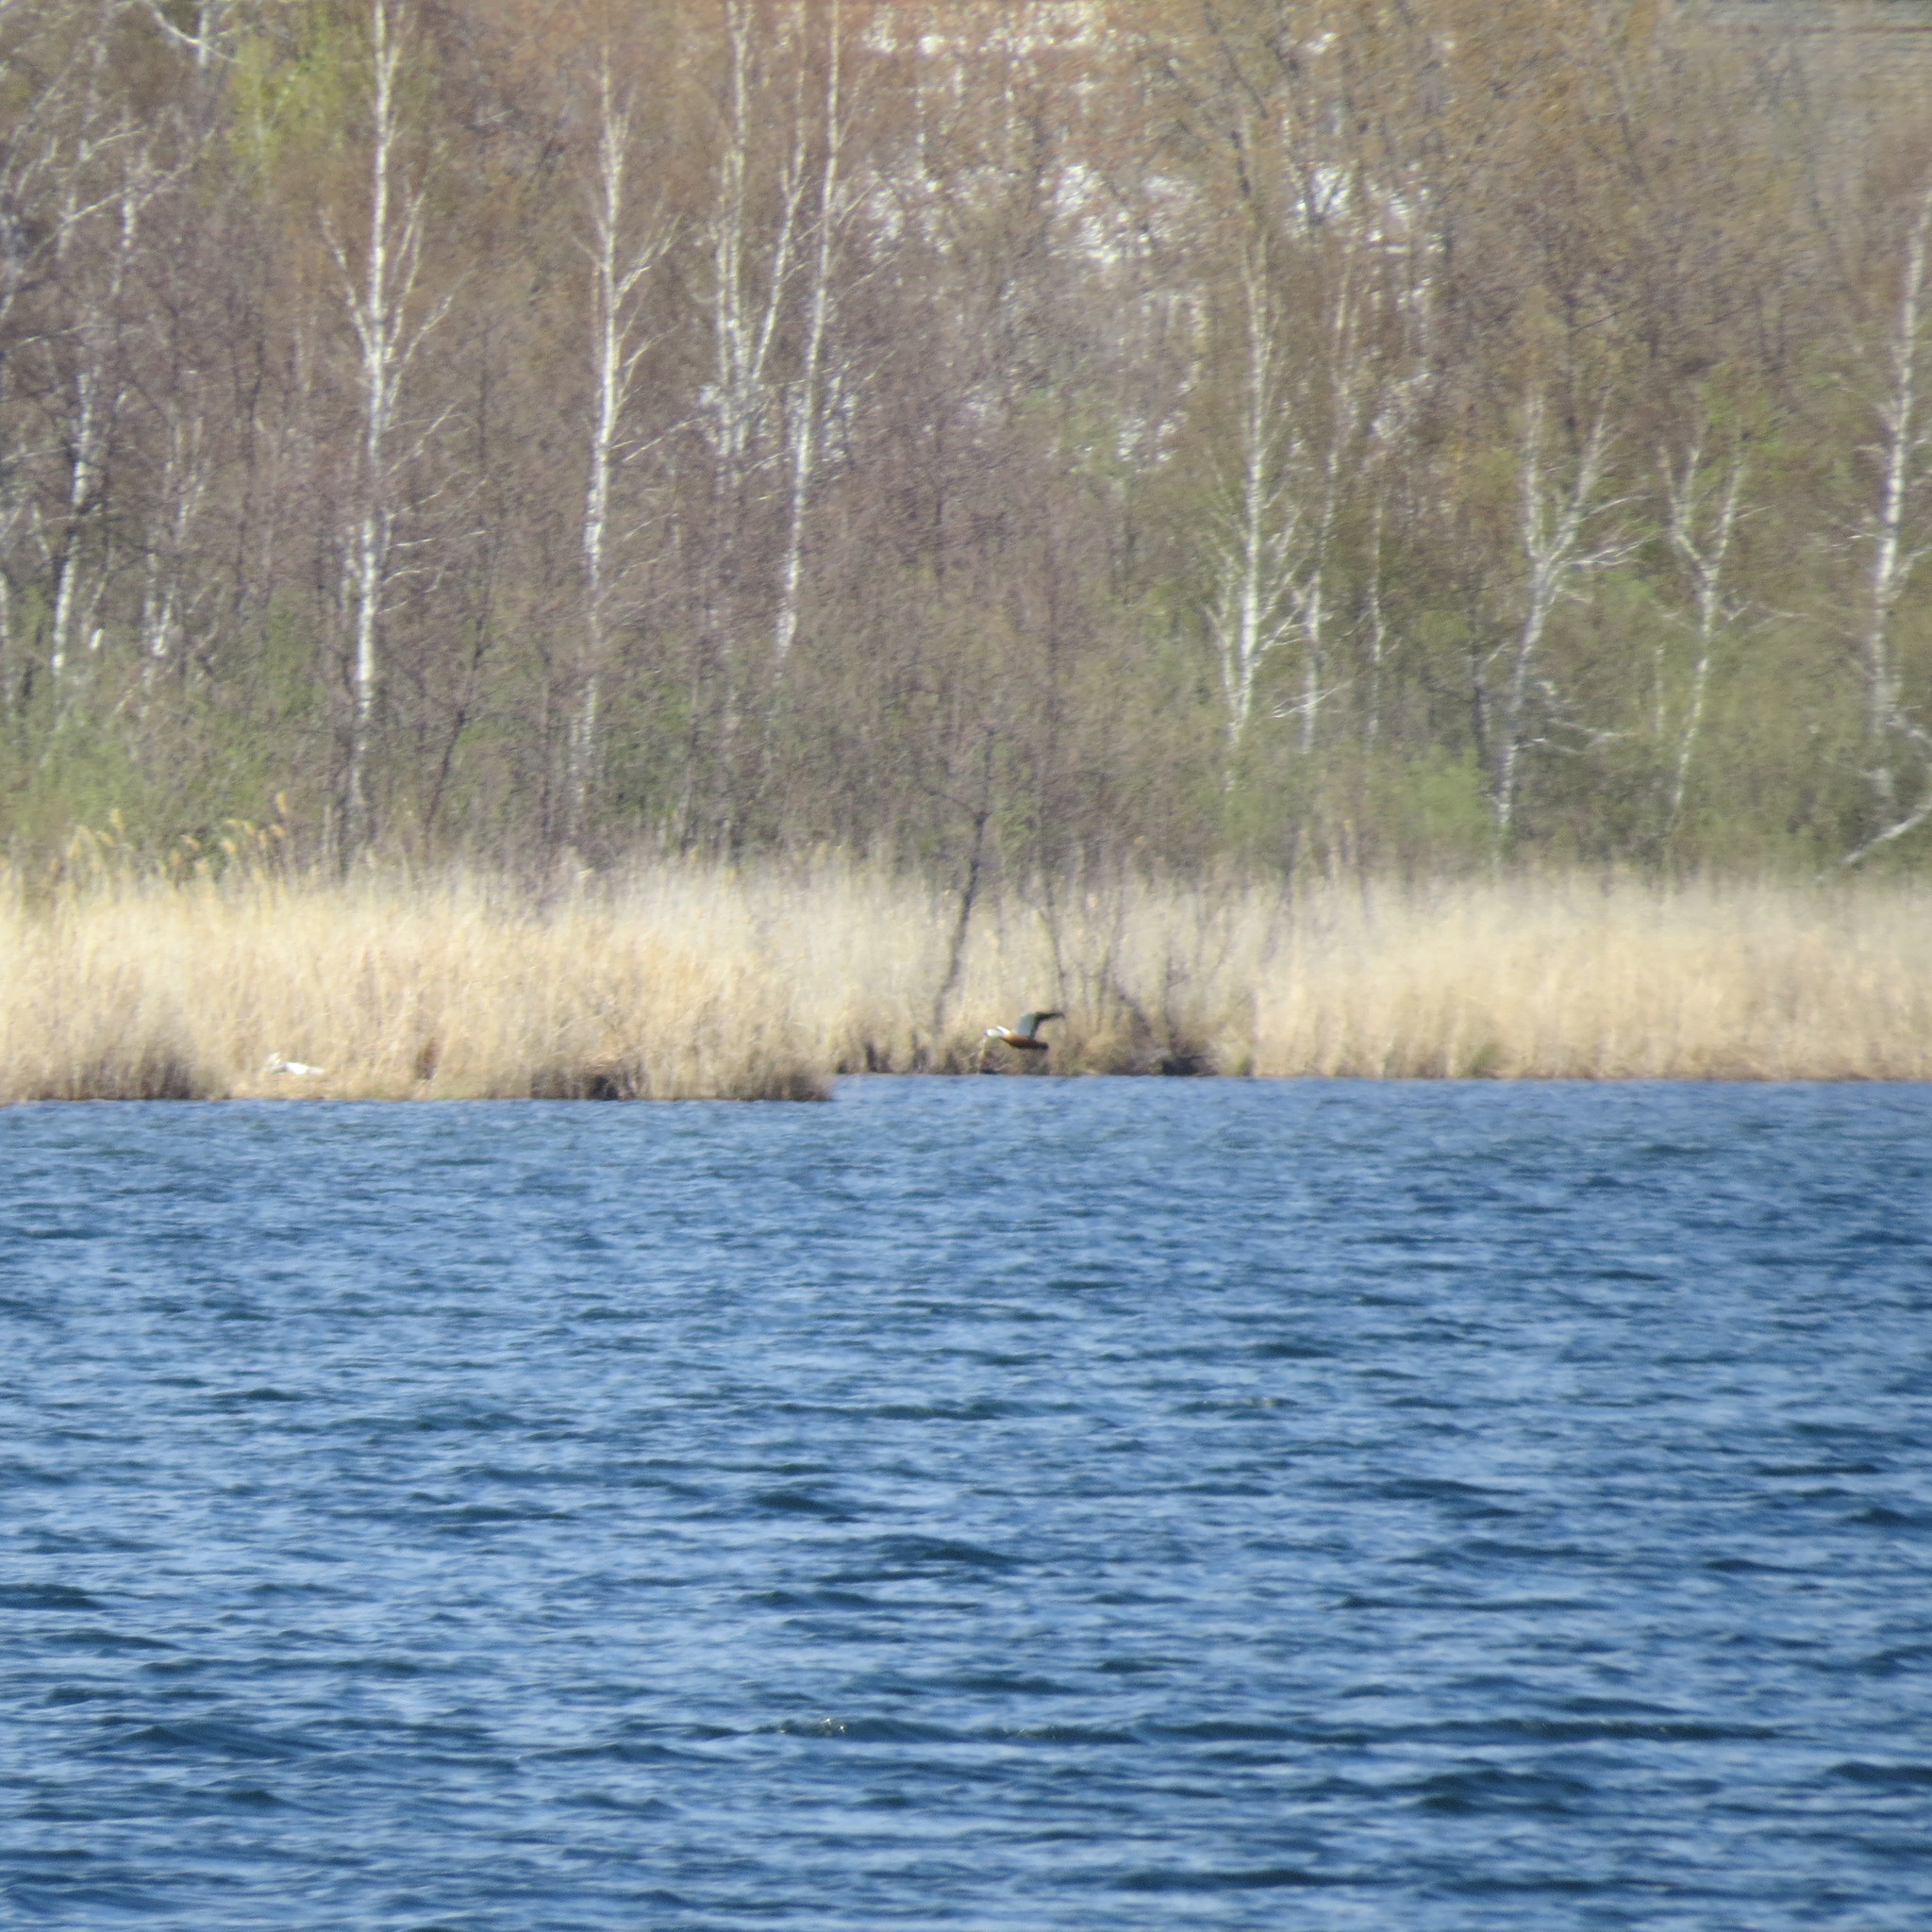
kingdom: Animalia
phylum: Chordata
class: Aves
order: Anseriformes
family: Anatidae
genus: Tadorna
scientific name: Tadorna ferruginea
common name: Ruddy shelduck
